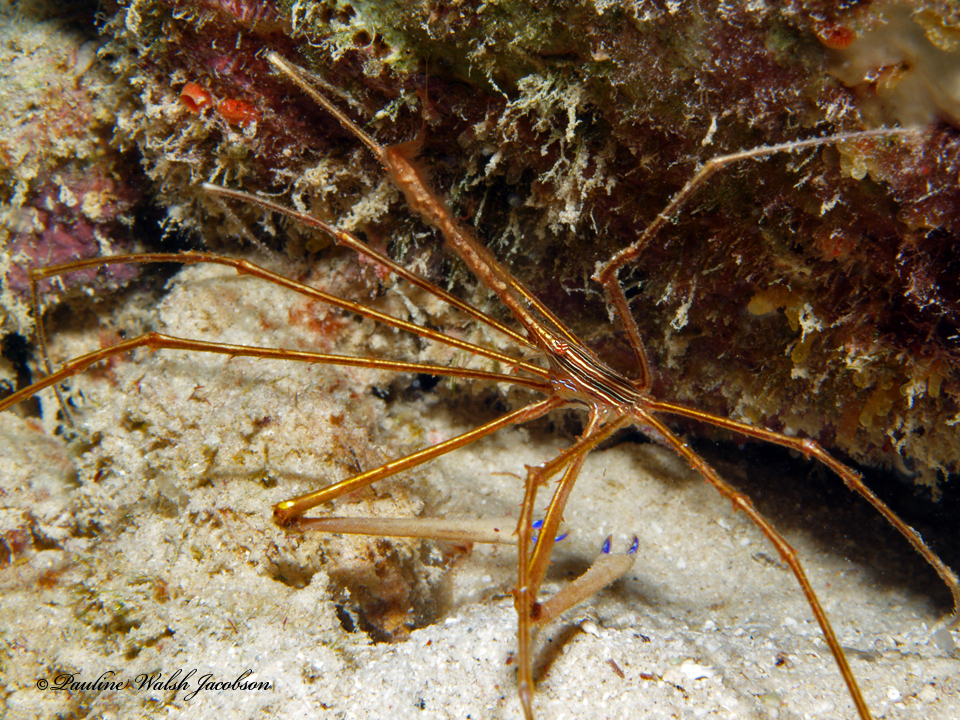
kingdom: Animalia
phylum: Arthropoda
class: Malacostraca
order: Decapoda
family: Inachoididae
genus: Stenorhynchus
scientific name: Stenorhynchus seticornis
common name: Arrow crab
